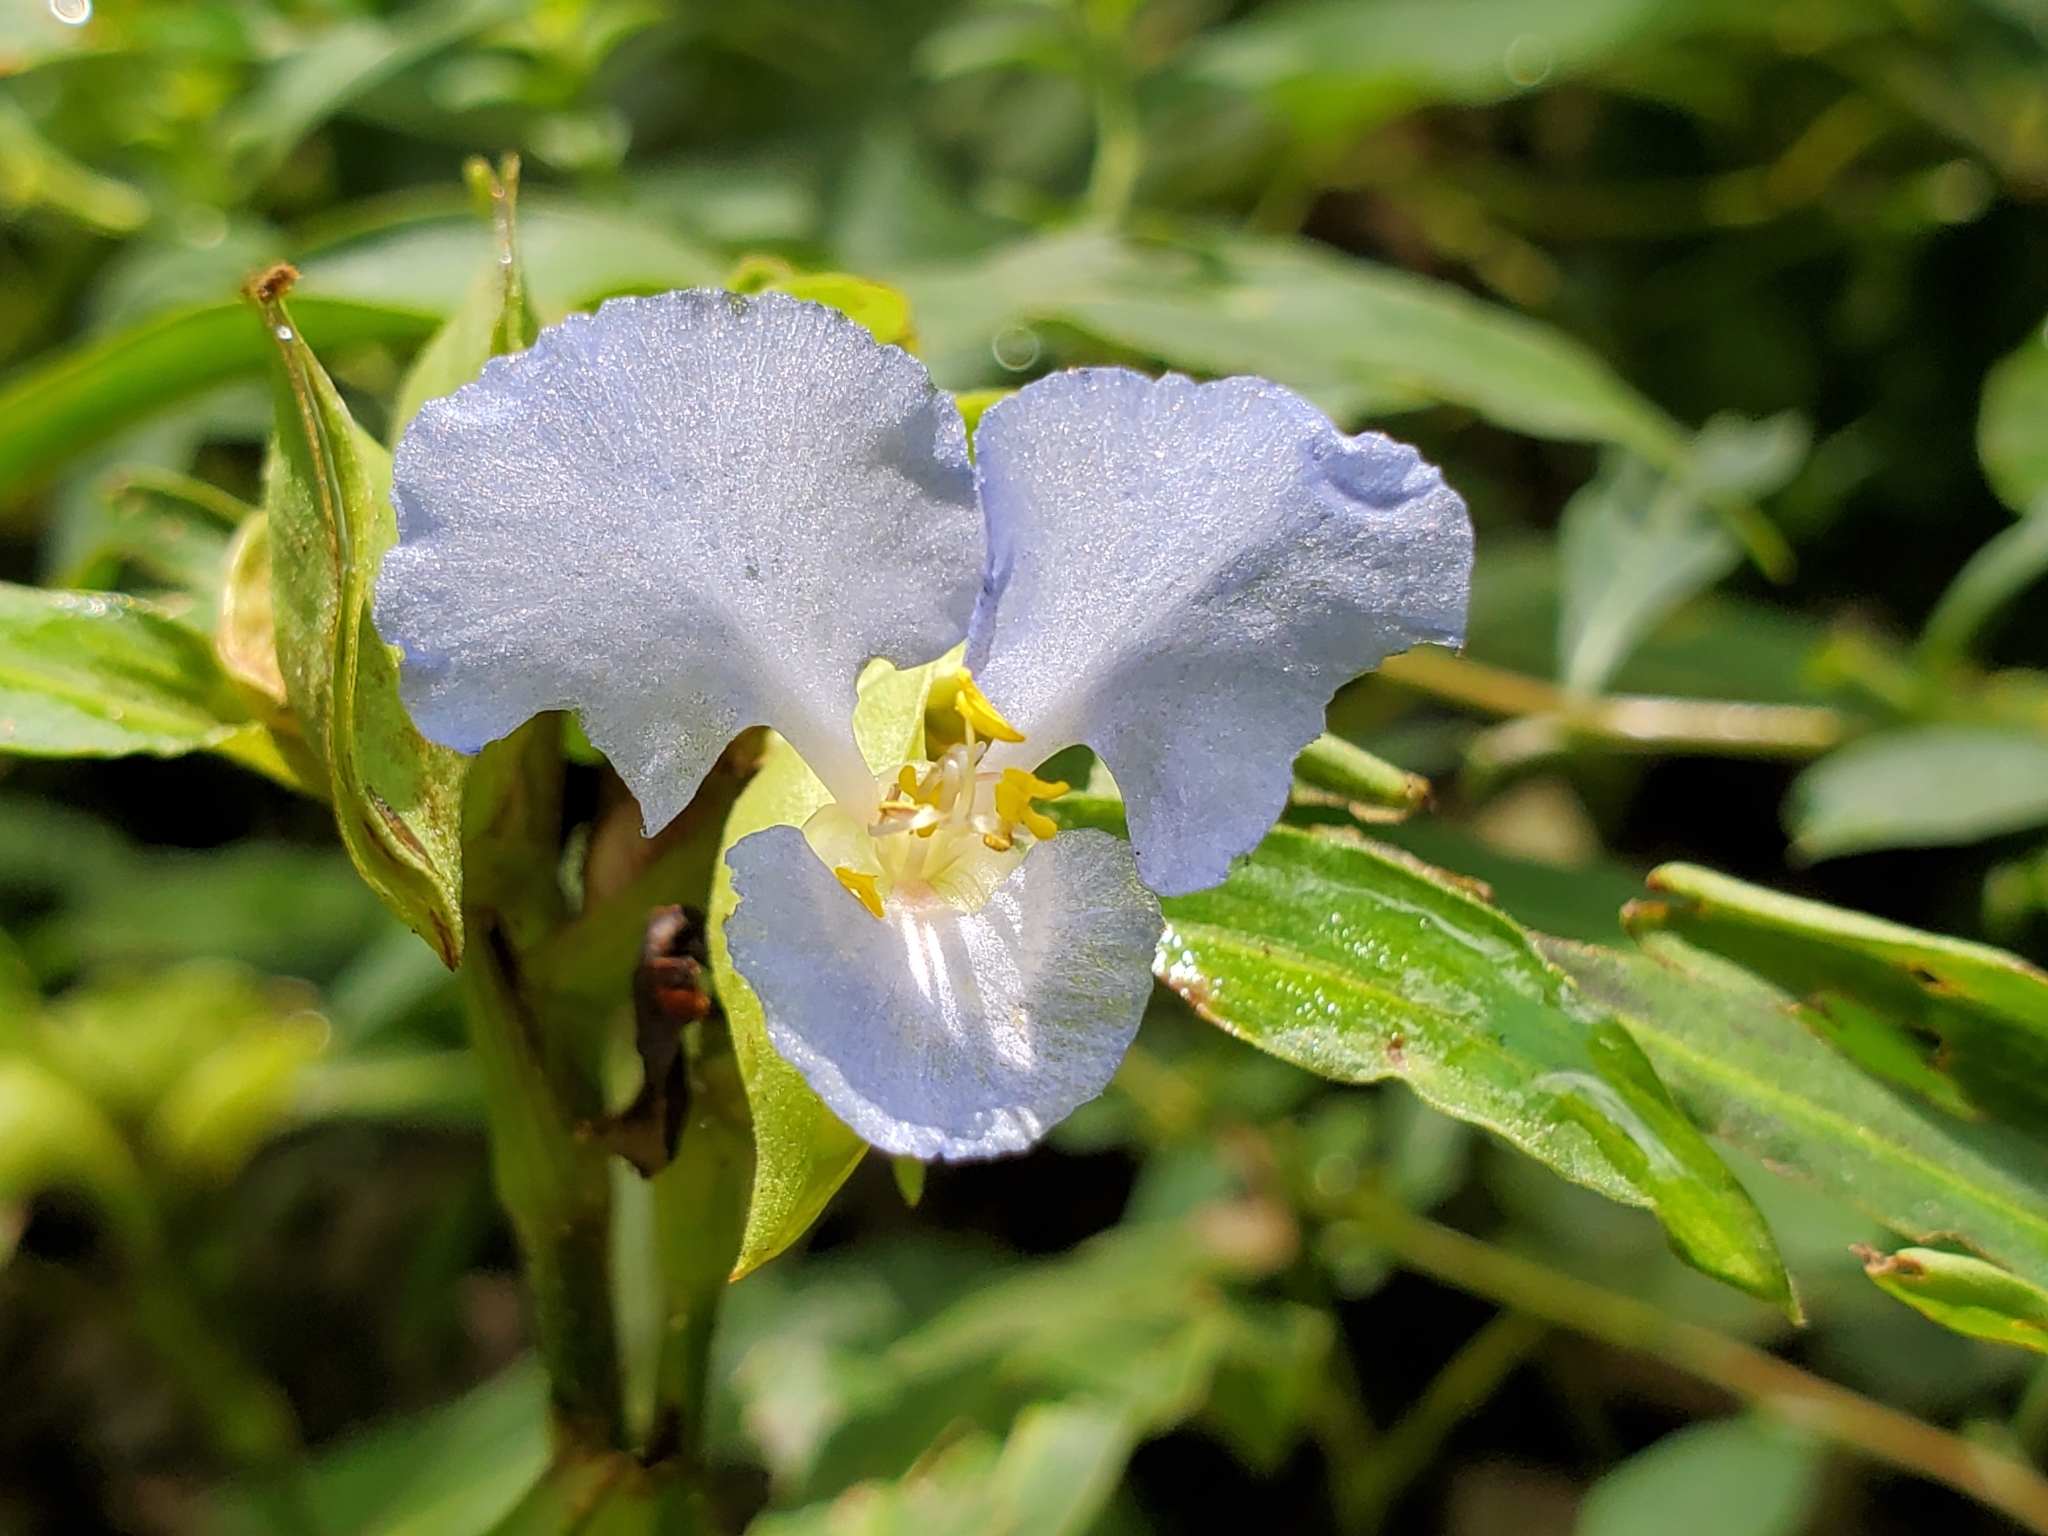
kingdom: Plantae
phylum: Tracheophyta
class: Liliopsida
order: Commelinales
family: Commelinaceae
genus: Commelina
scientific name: Commelina virginica
